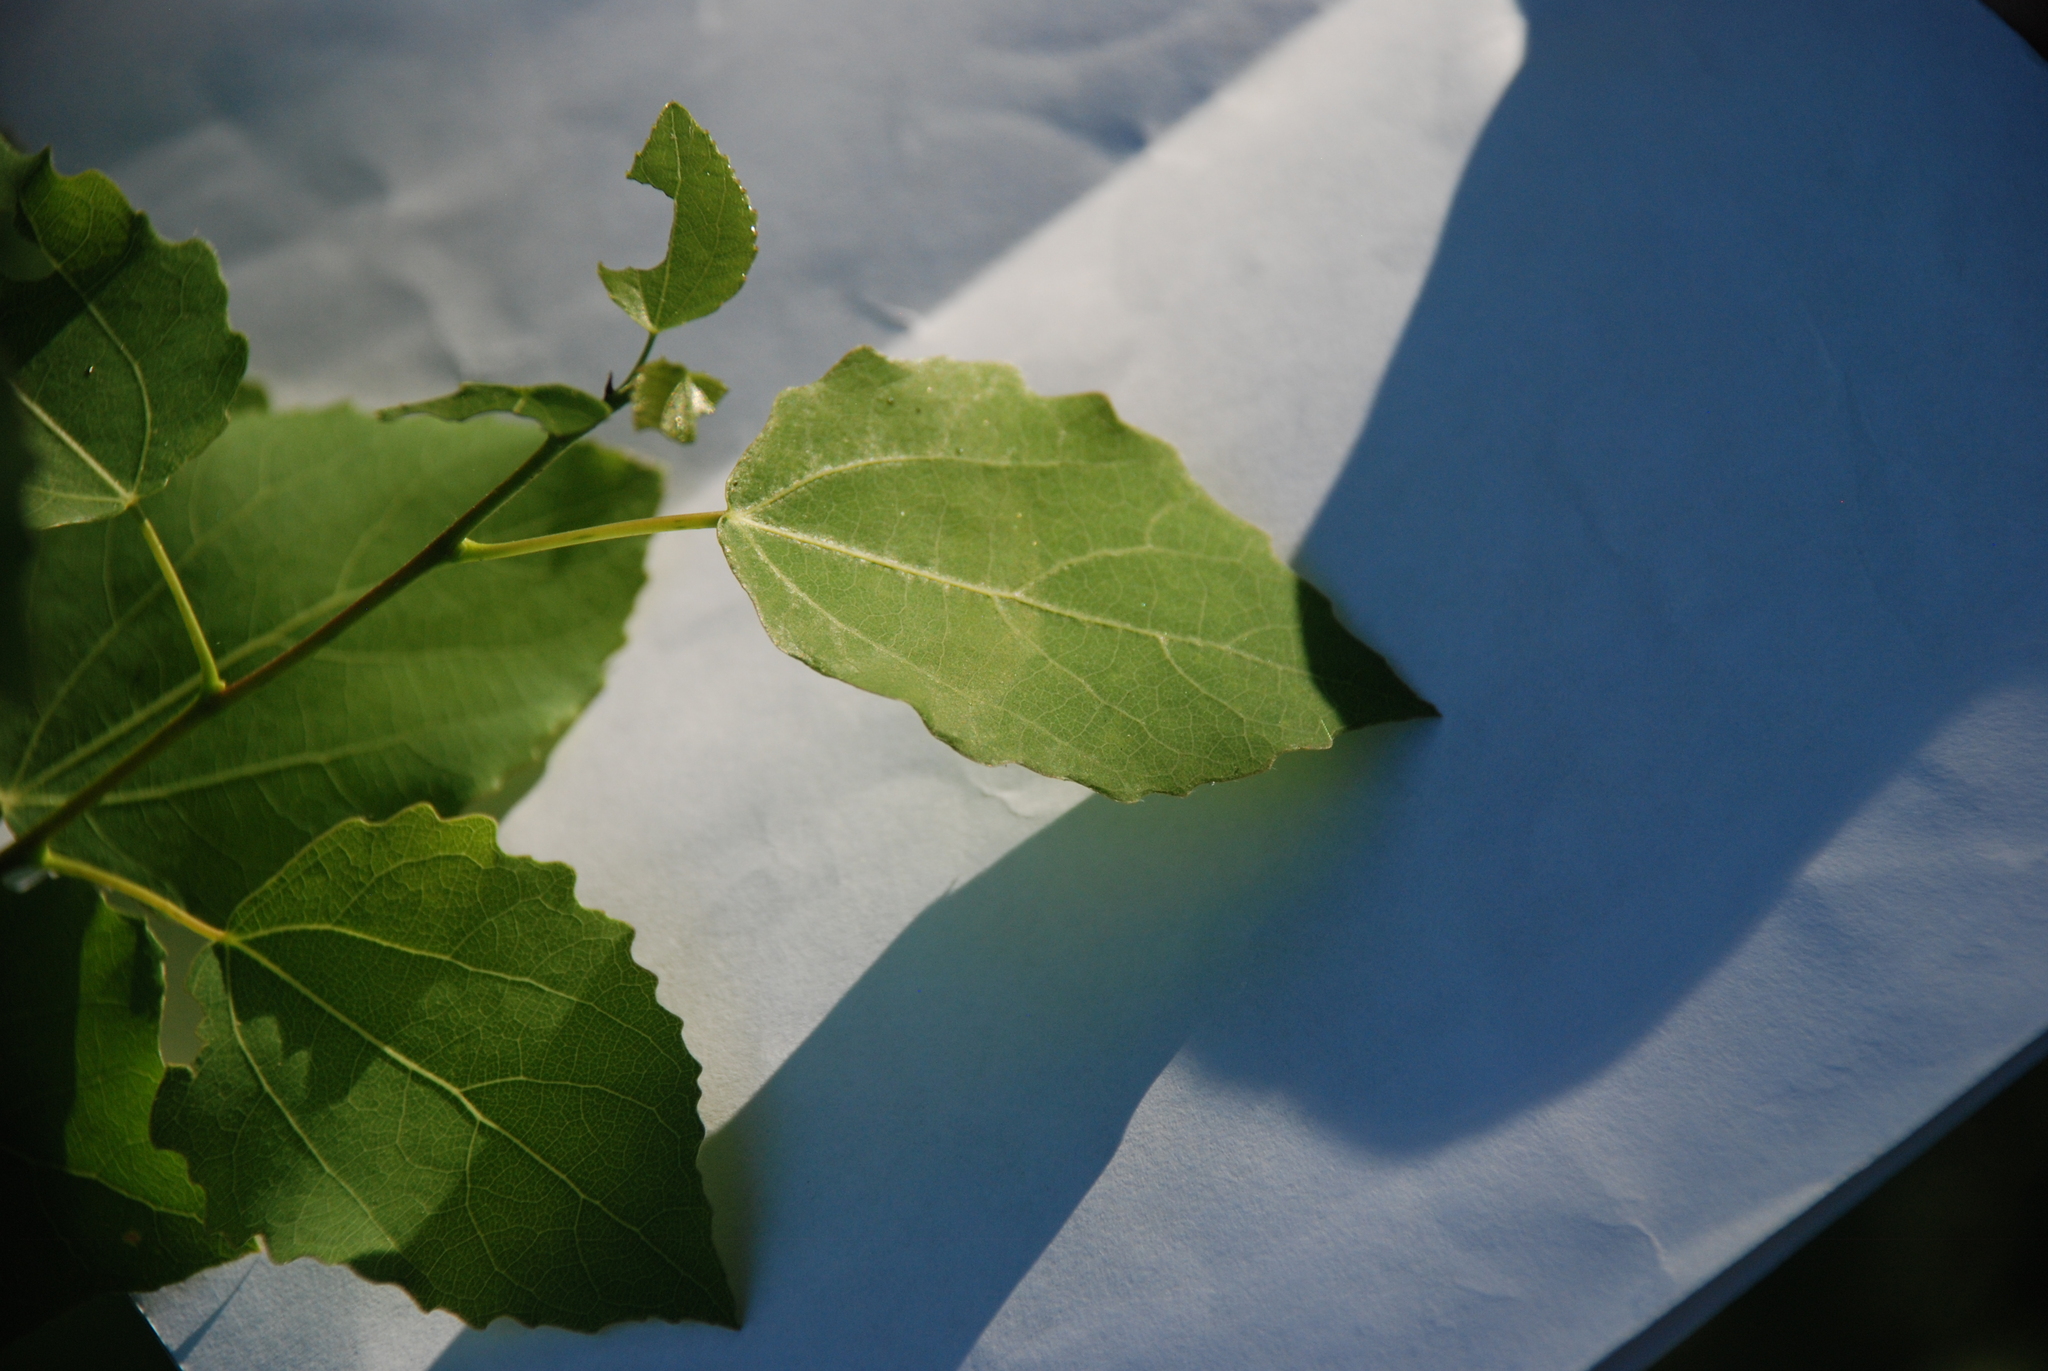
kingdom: Plantae
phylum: Tracheophyta
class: Magnoliopsida
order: Malpighiales
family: Salicaceae
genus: Populus
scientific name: Populus tremula
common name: European aspen
